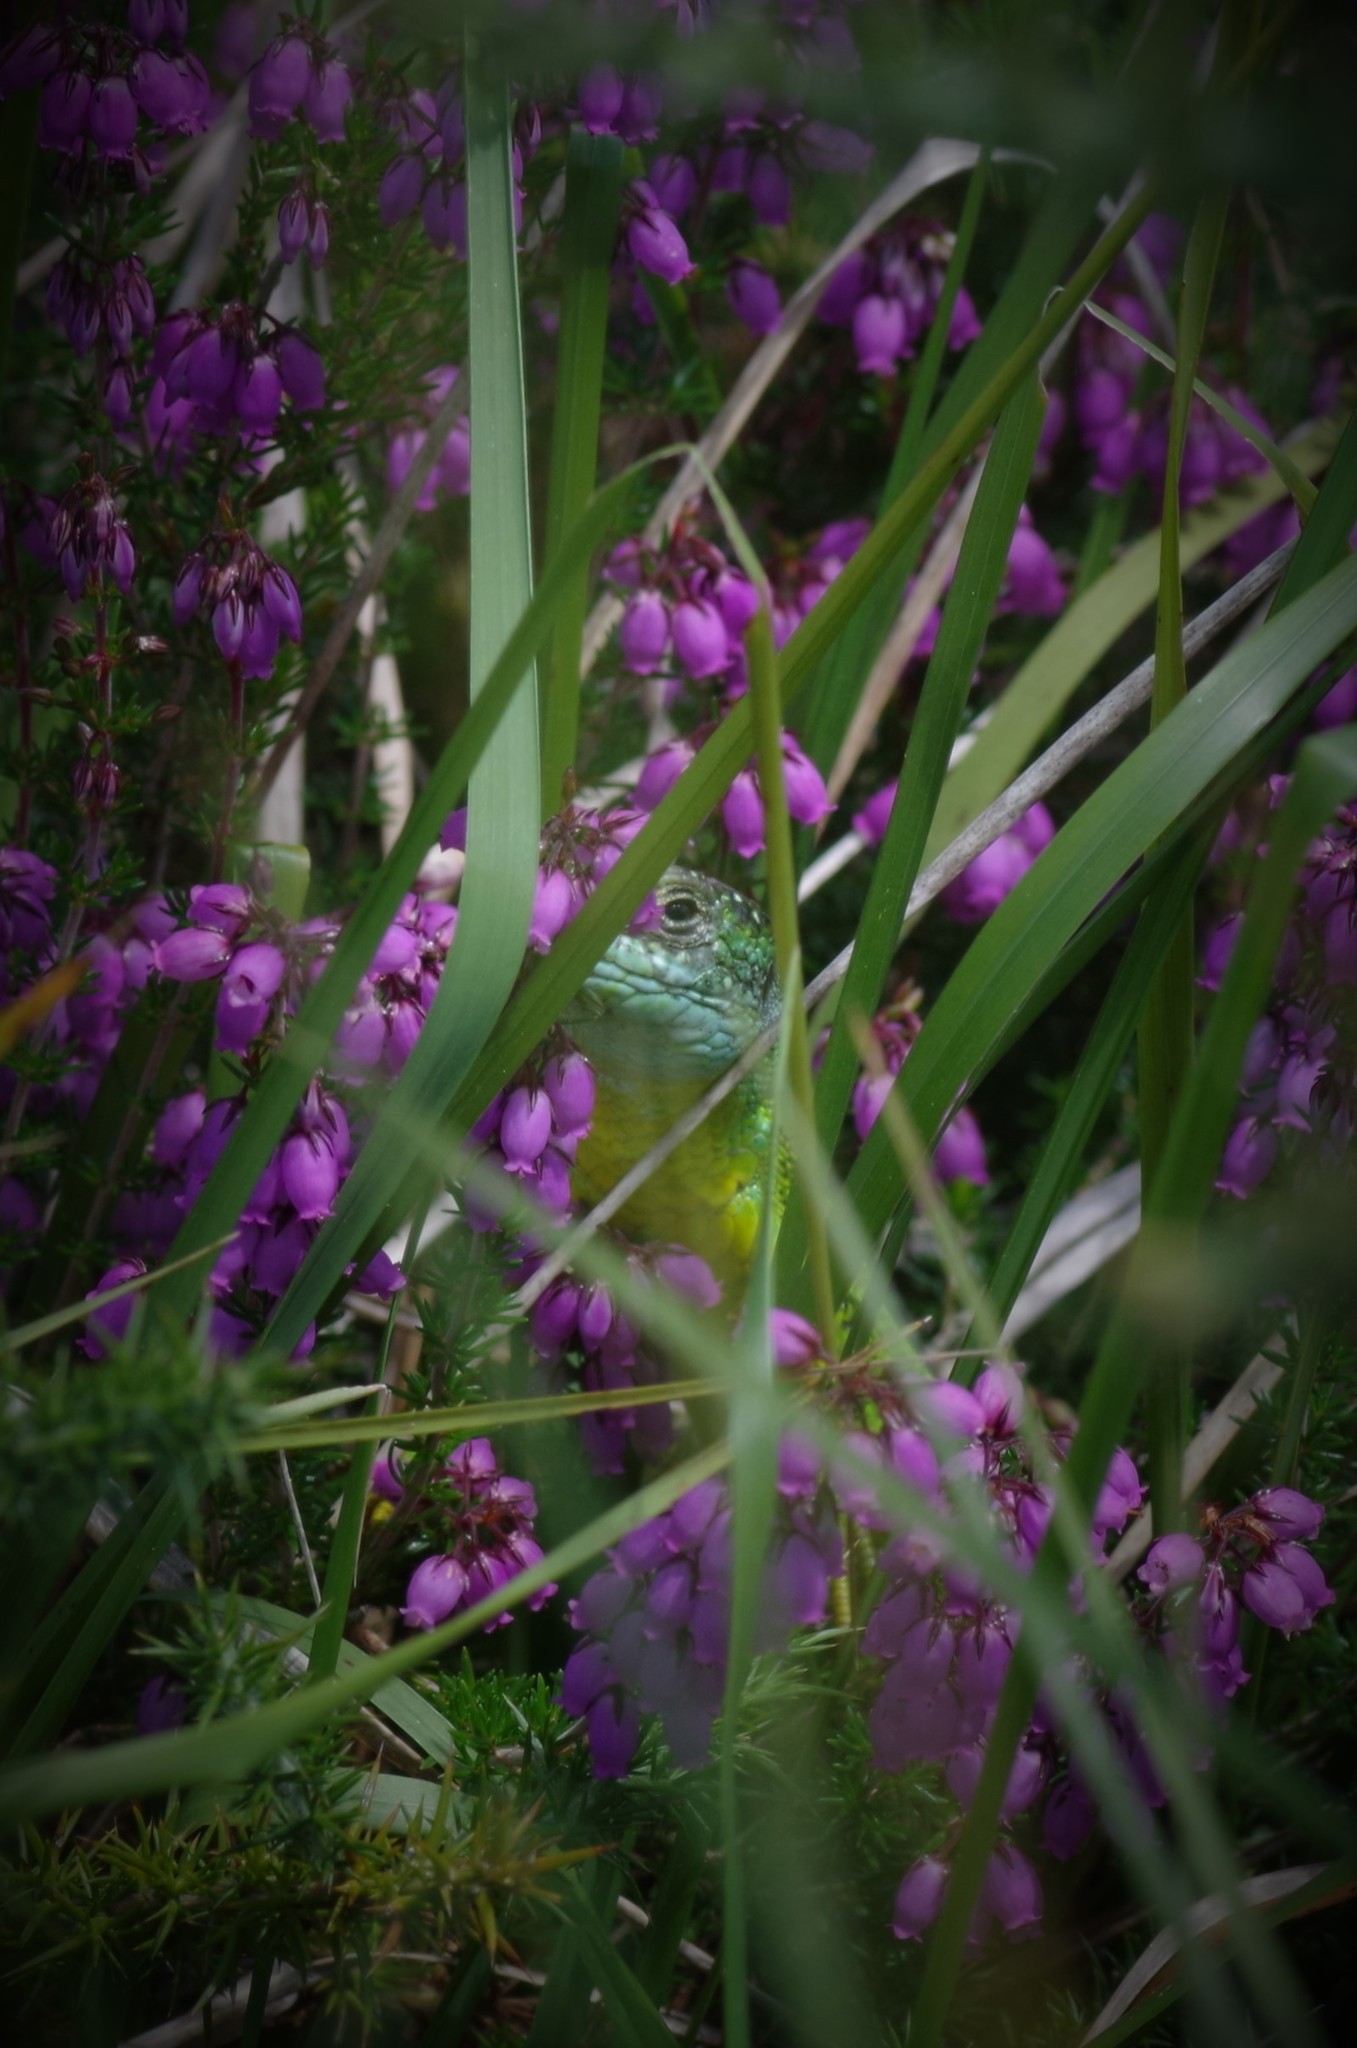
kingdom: Animalia
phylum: Chordata
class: Squamata
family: Lacertidae
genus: Lacerta
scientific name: Lacerta bilineata
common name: Western green lizard
